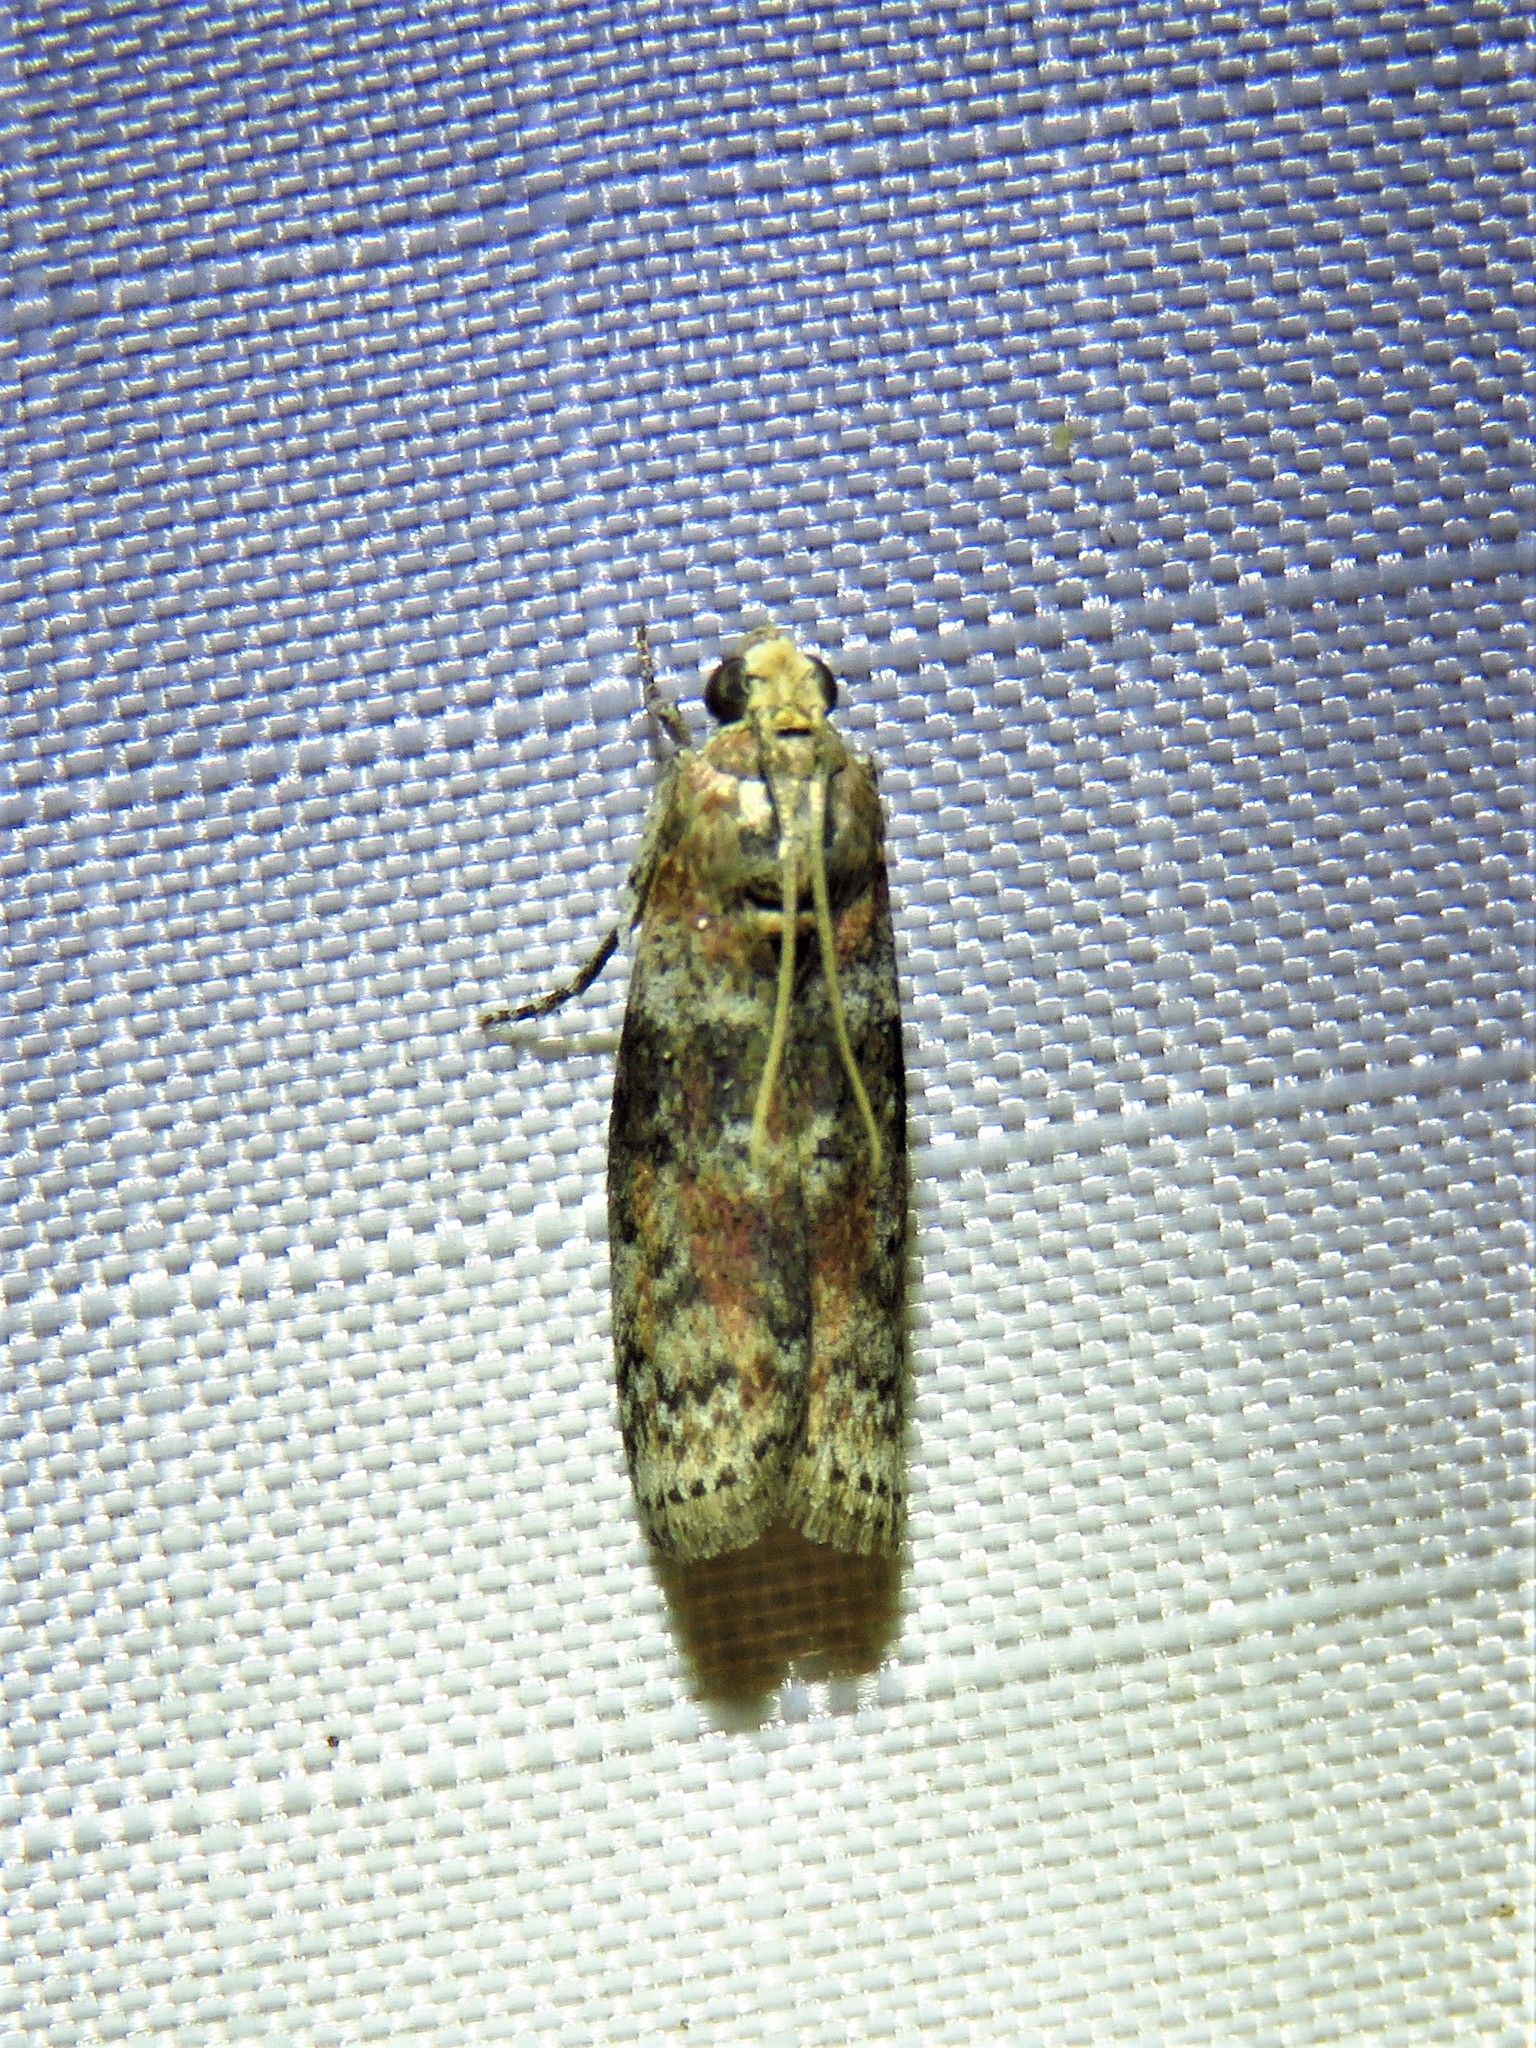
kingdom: Animalia
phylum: Arthropoda
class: Insecta
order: Lepidoptera
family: Pyralidae
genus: Sciota
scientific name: Sciota celtidella
